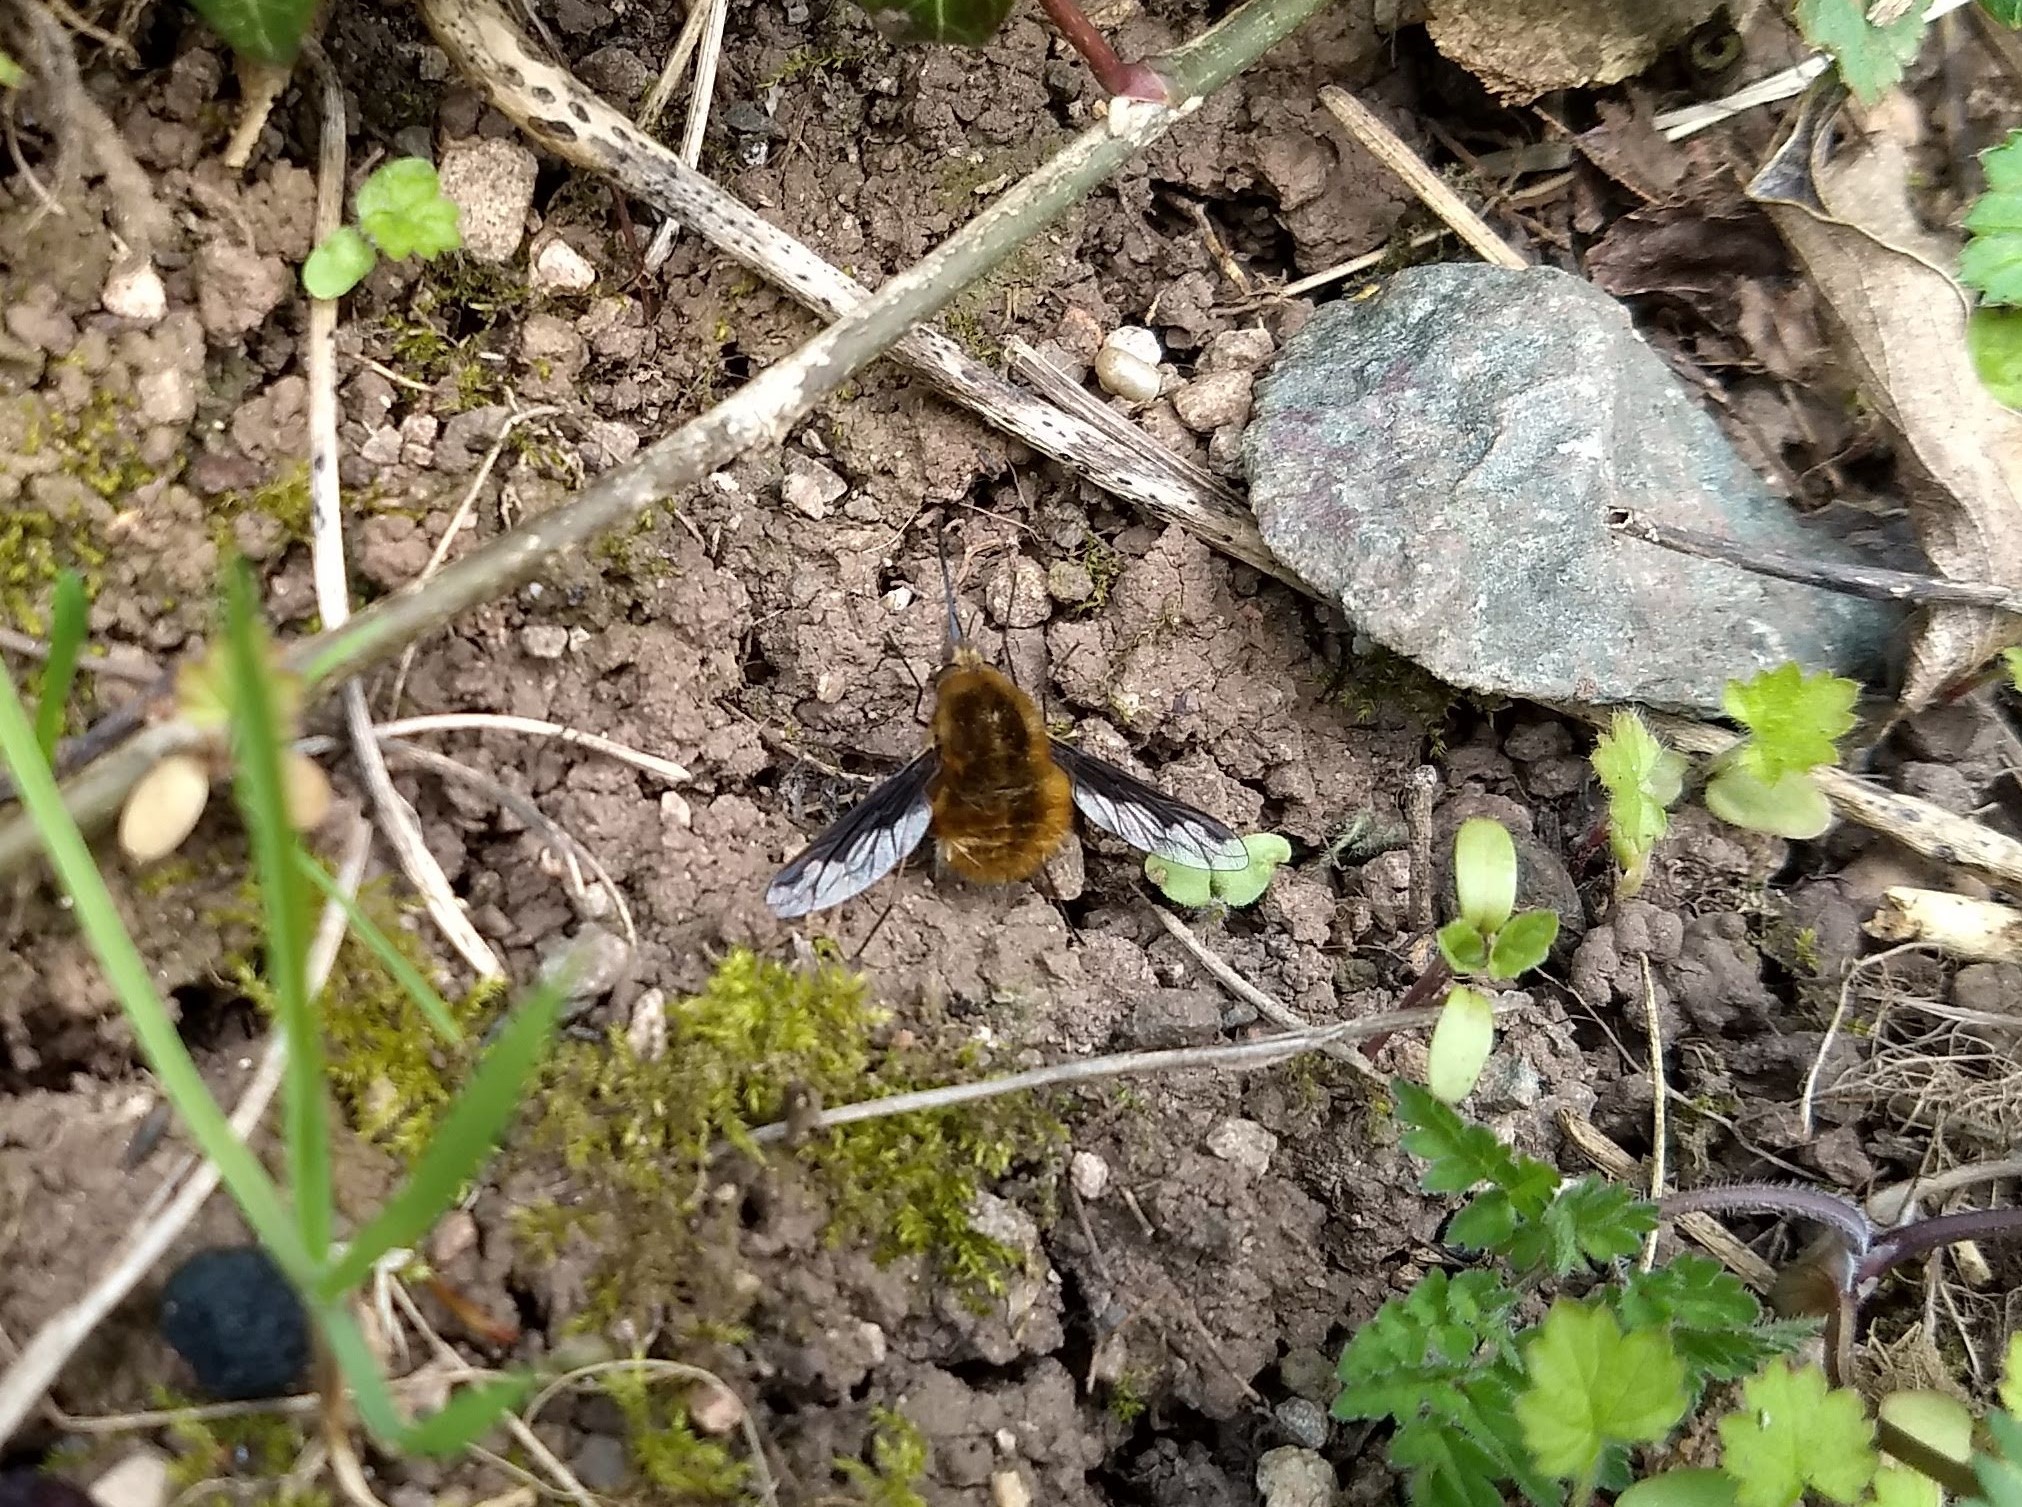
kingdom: Animalia
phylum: Arthropoda
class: Insecta
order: Diptera
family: Bombyliidae
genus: Bombylius
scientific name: Bombylius major
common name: Bee fly
